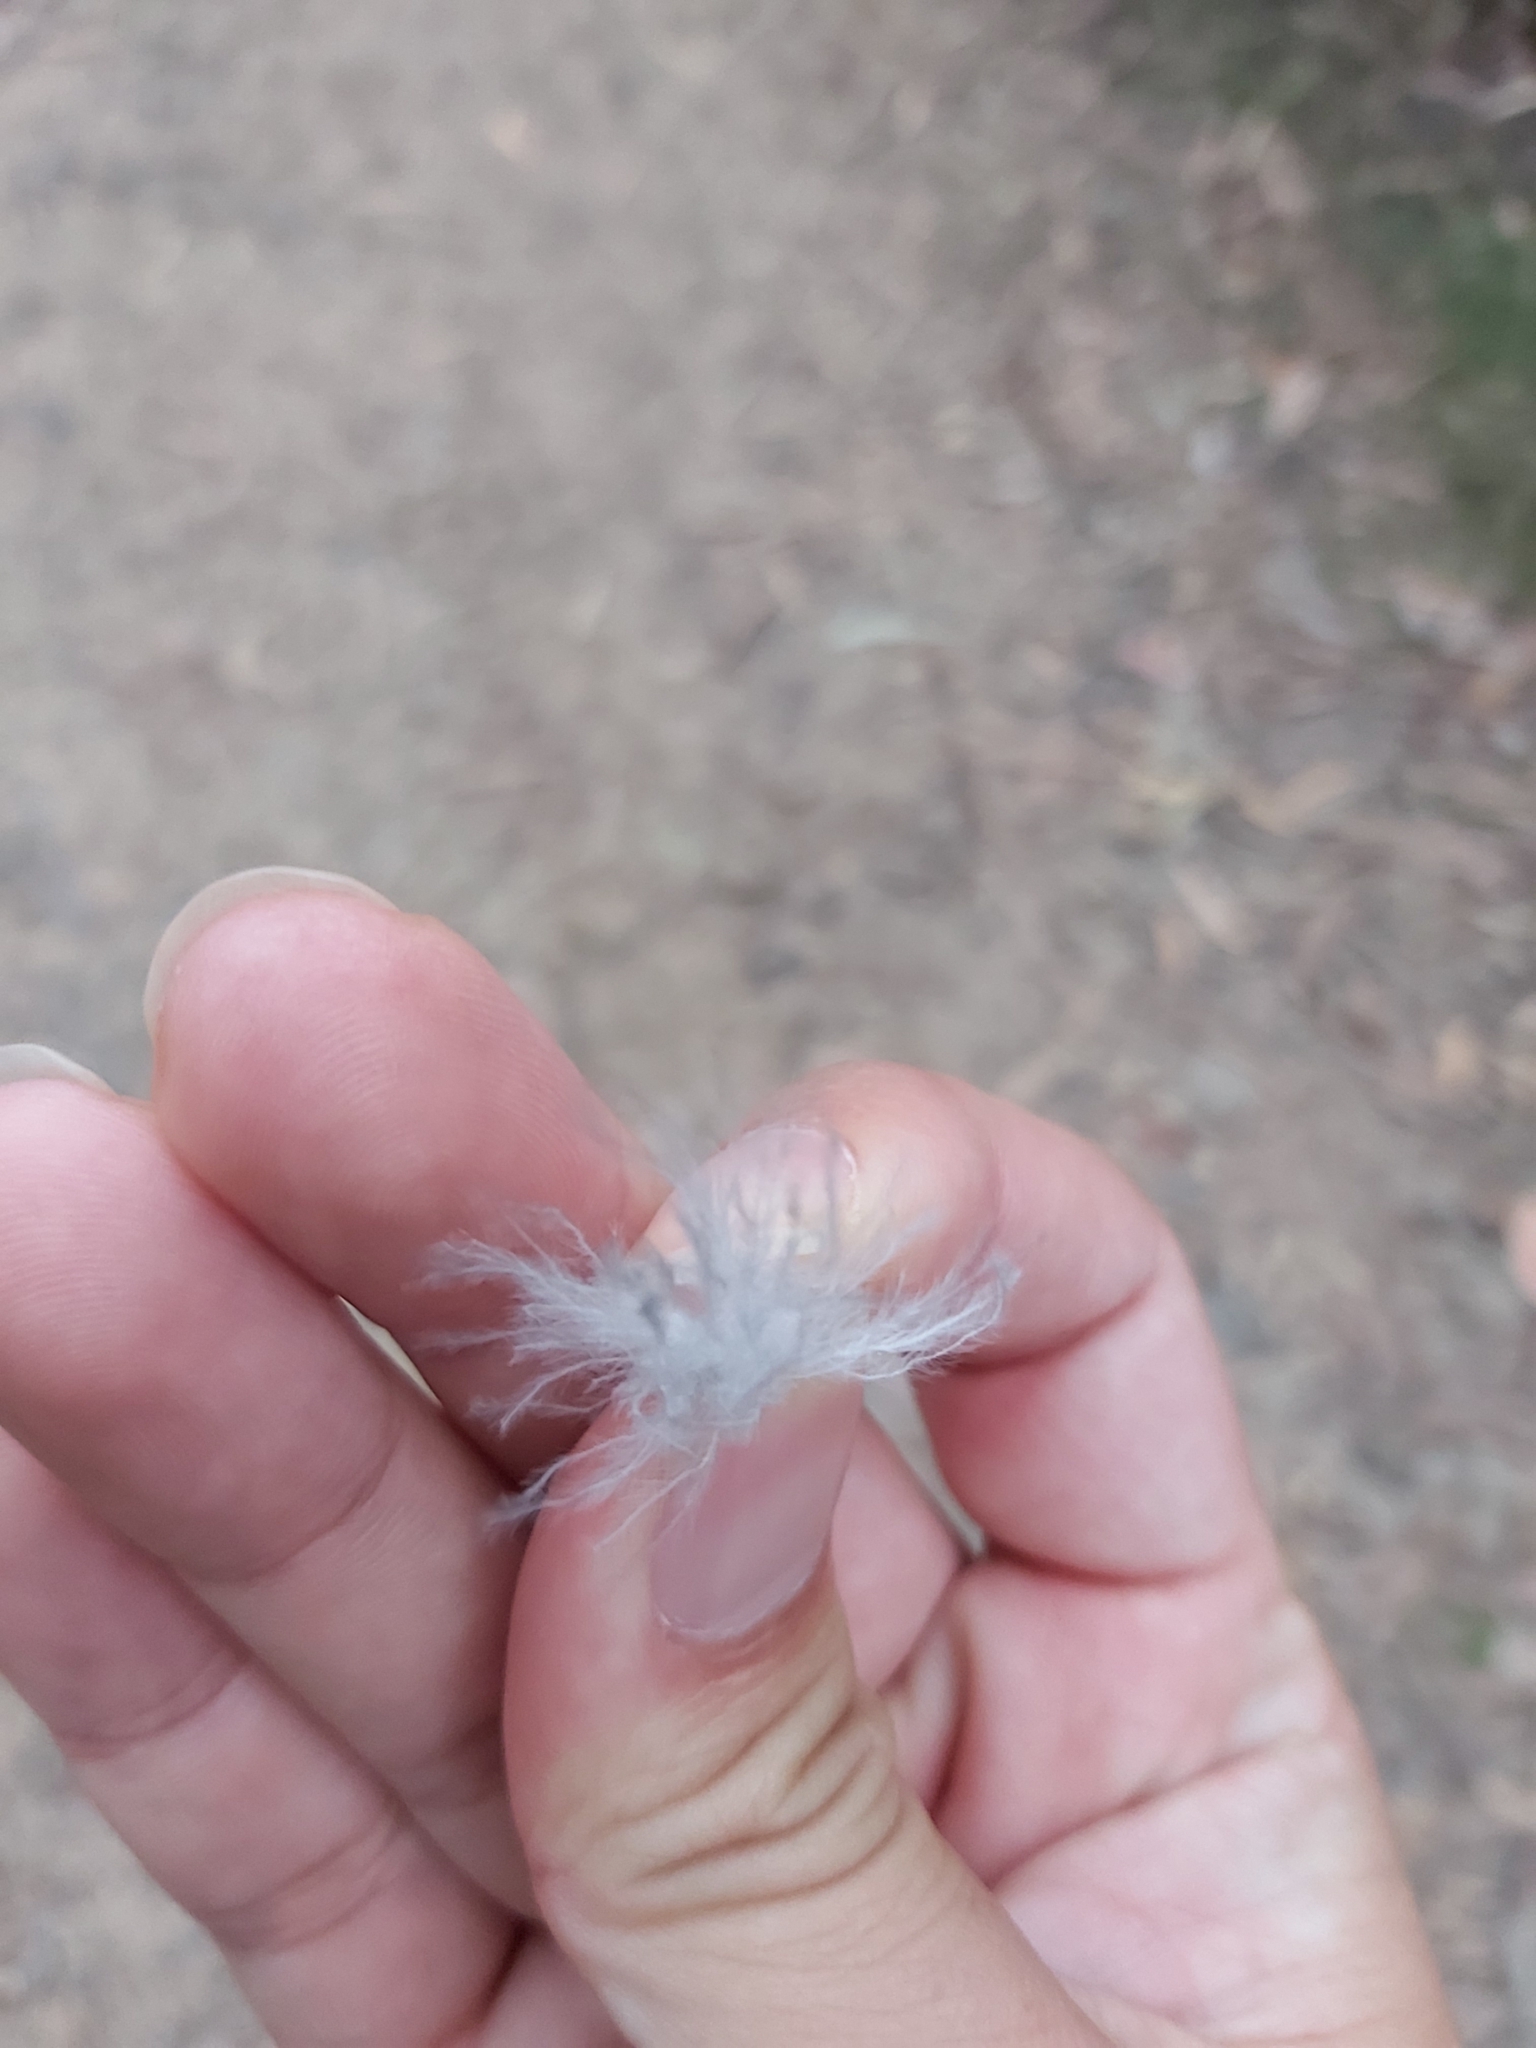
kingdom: Animalia
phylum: Chordata
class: Aves
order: Psittaciformes
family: Psittacidae
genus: Calyptorhynchus
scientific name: Calyptorhynchus lathami
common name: Glossy black cockatoo
